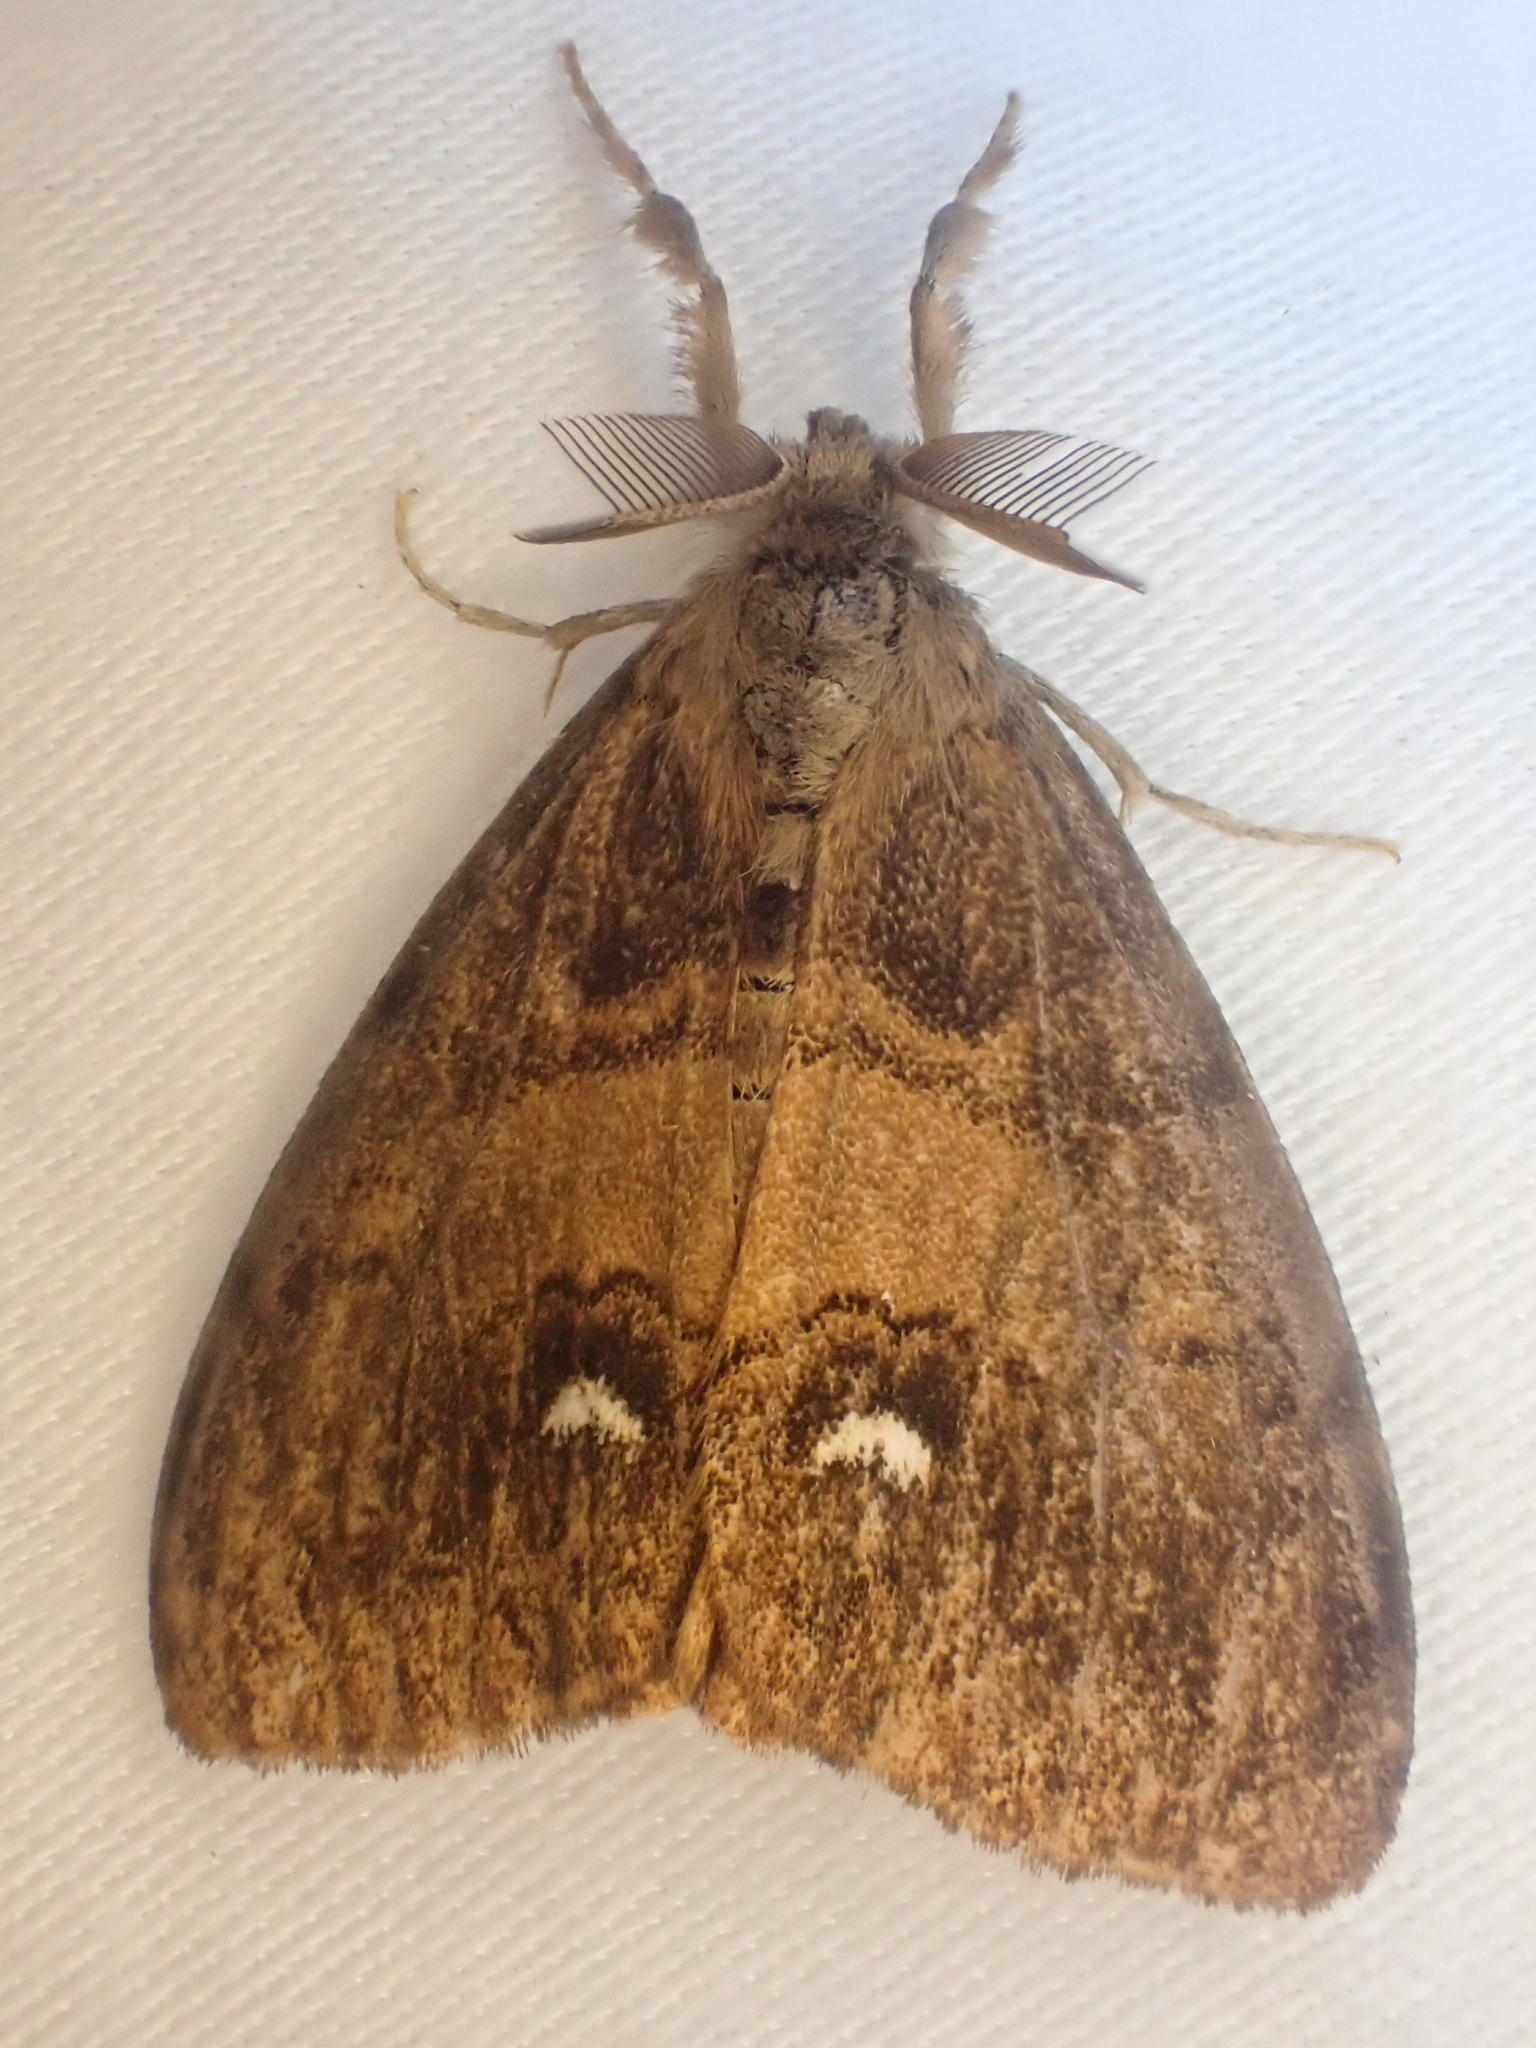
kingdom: Animalia
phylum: Arthropoda
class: Insecta
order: Lepidoptera
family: Erebidae
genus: Orgyia
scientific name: Orgyia antiqua
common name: Vapourer
